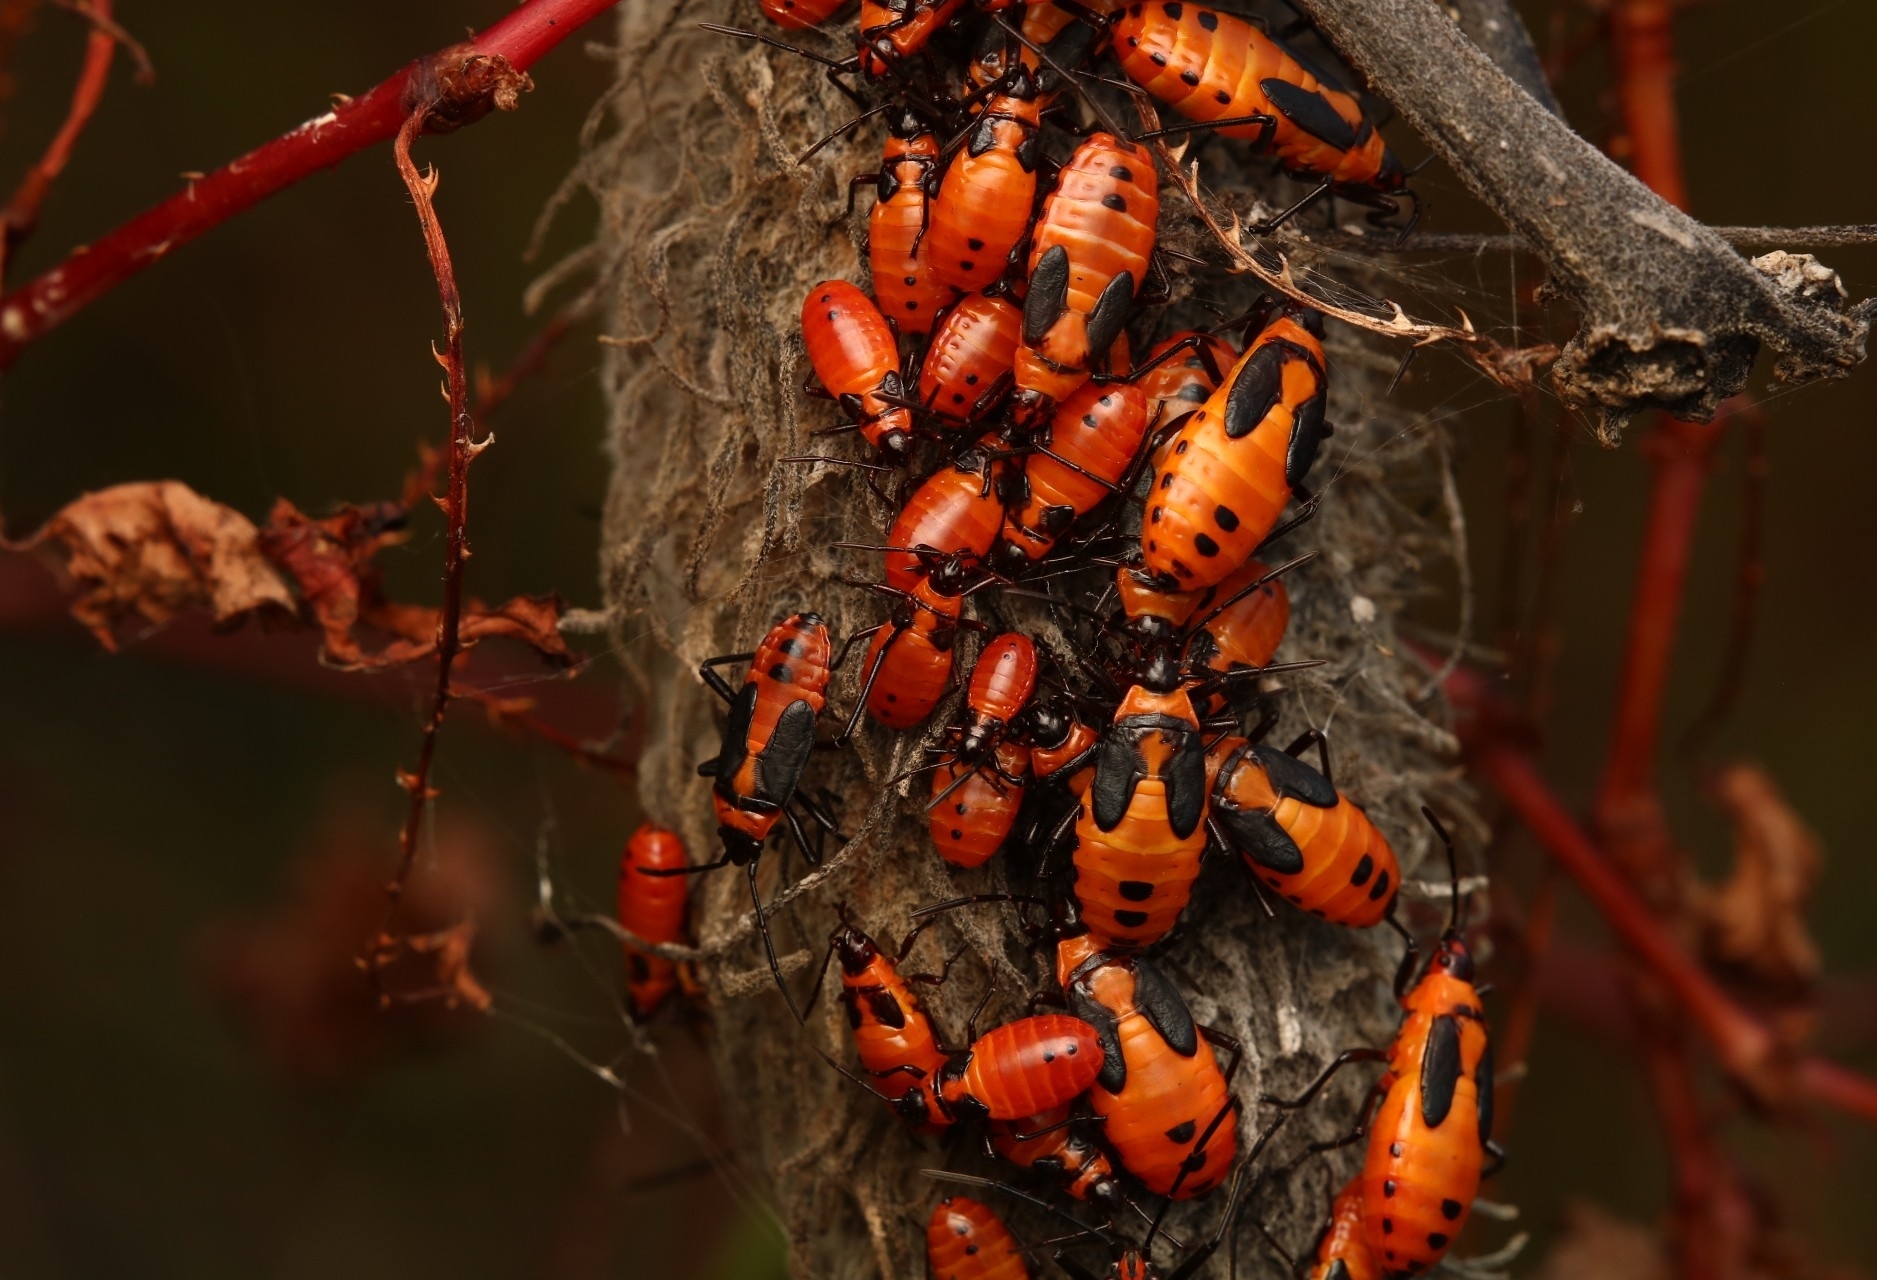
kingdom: Animalia
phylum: Arthropoda
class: Insecta
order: Hemiptera
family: Lygaeidae
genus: Oncopeltus
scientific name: Oncopeltus fasciatus
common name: Large milkweed bug
